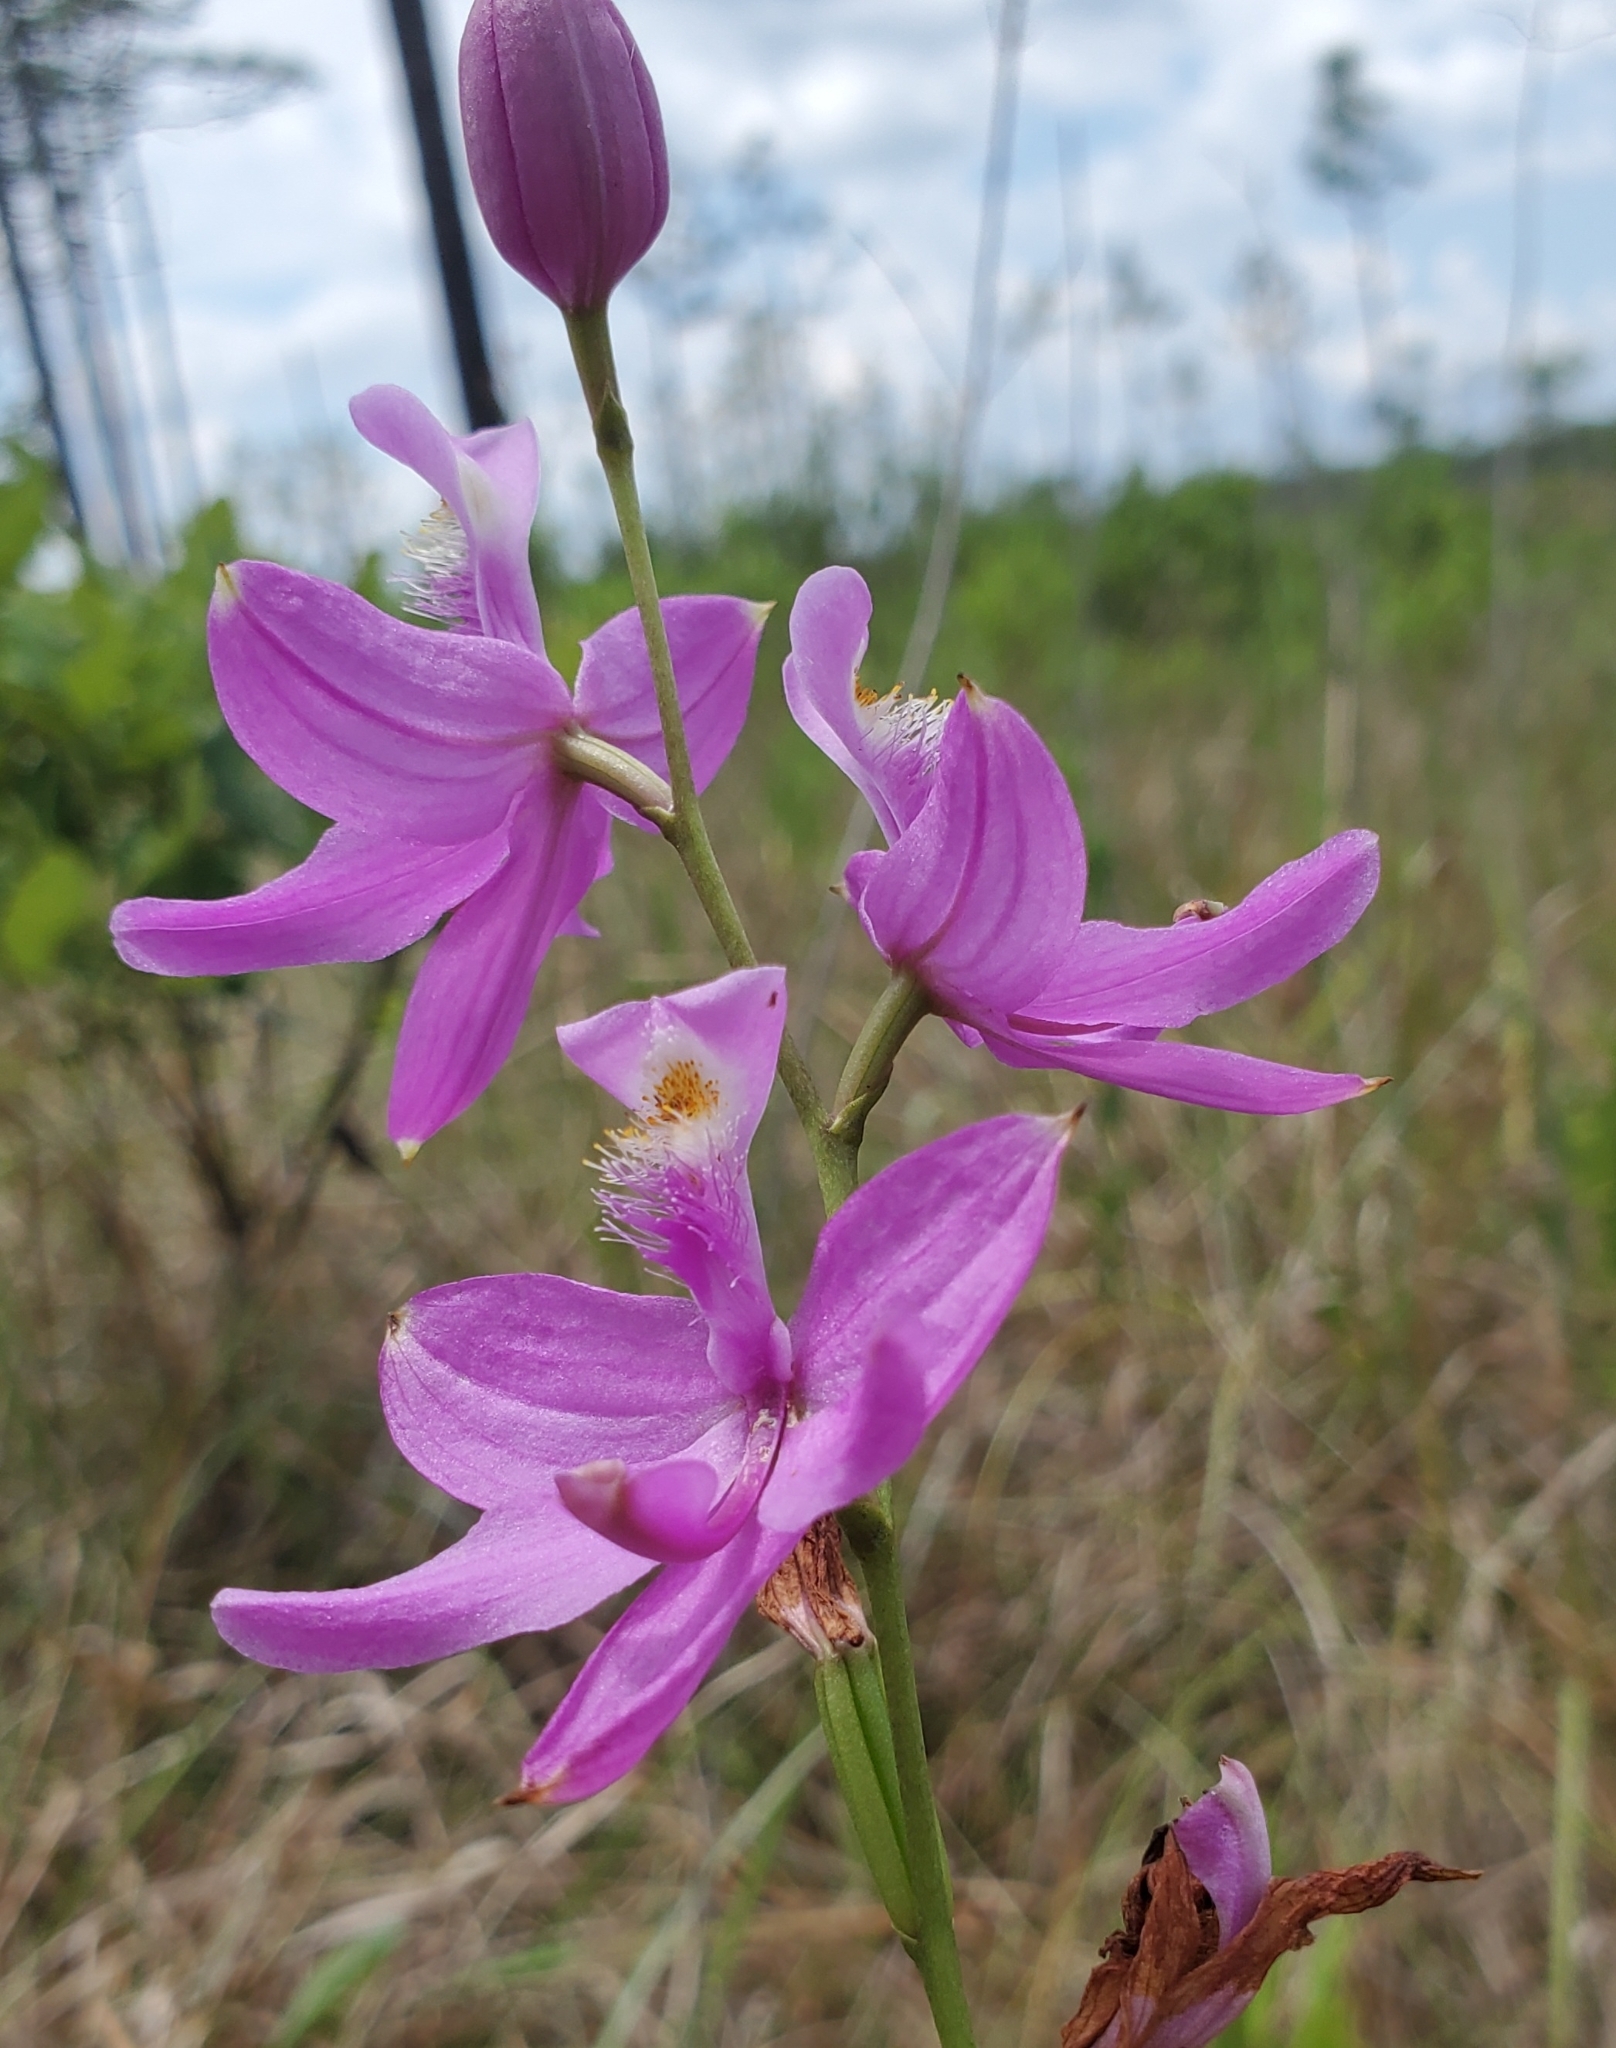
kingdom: Plantae
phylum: Tracheophyta
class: Liliopsida
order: Asparagales
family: Orchidaceae
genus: Calopogon
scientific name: Calopogon tuberosus
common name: Grass-pink
